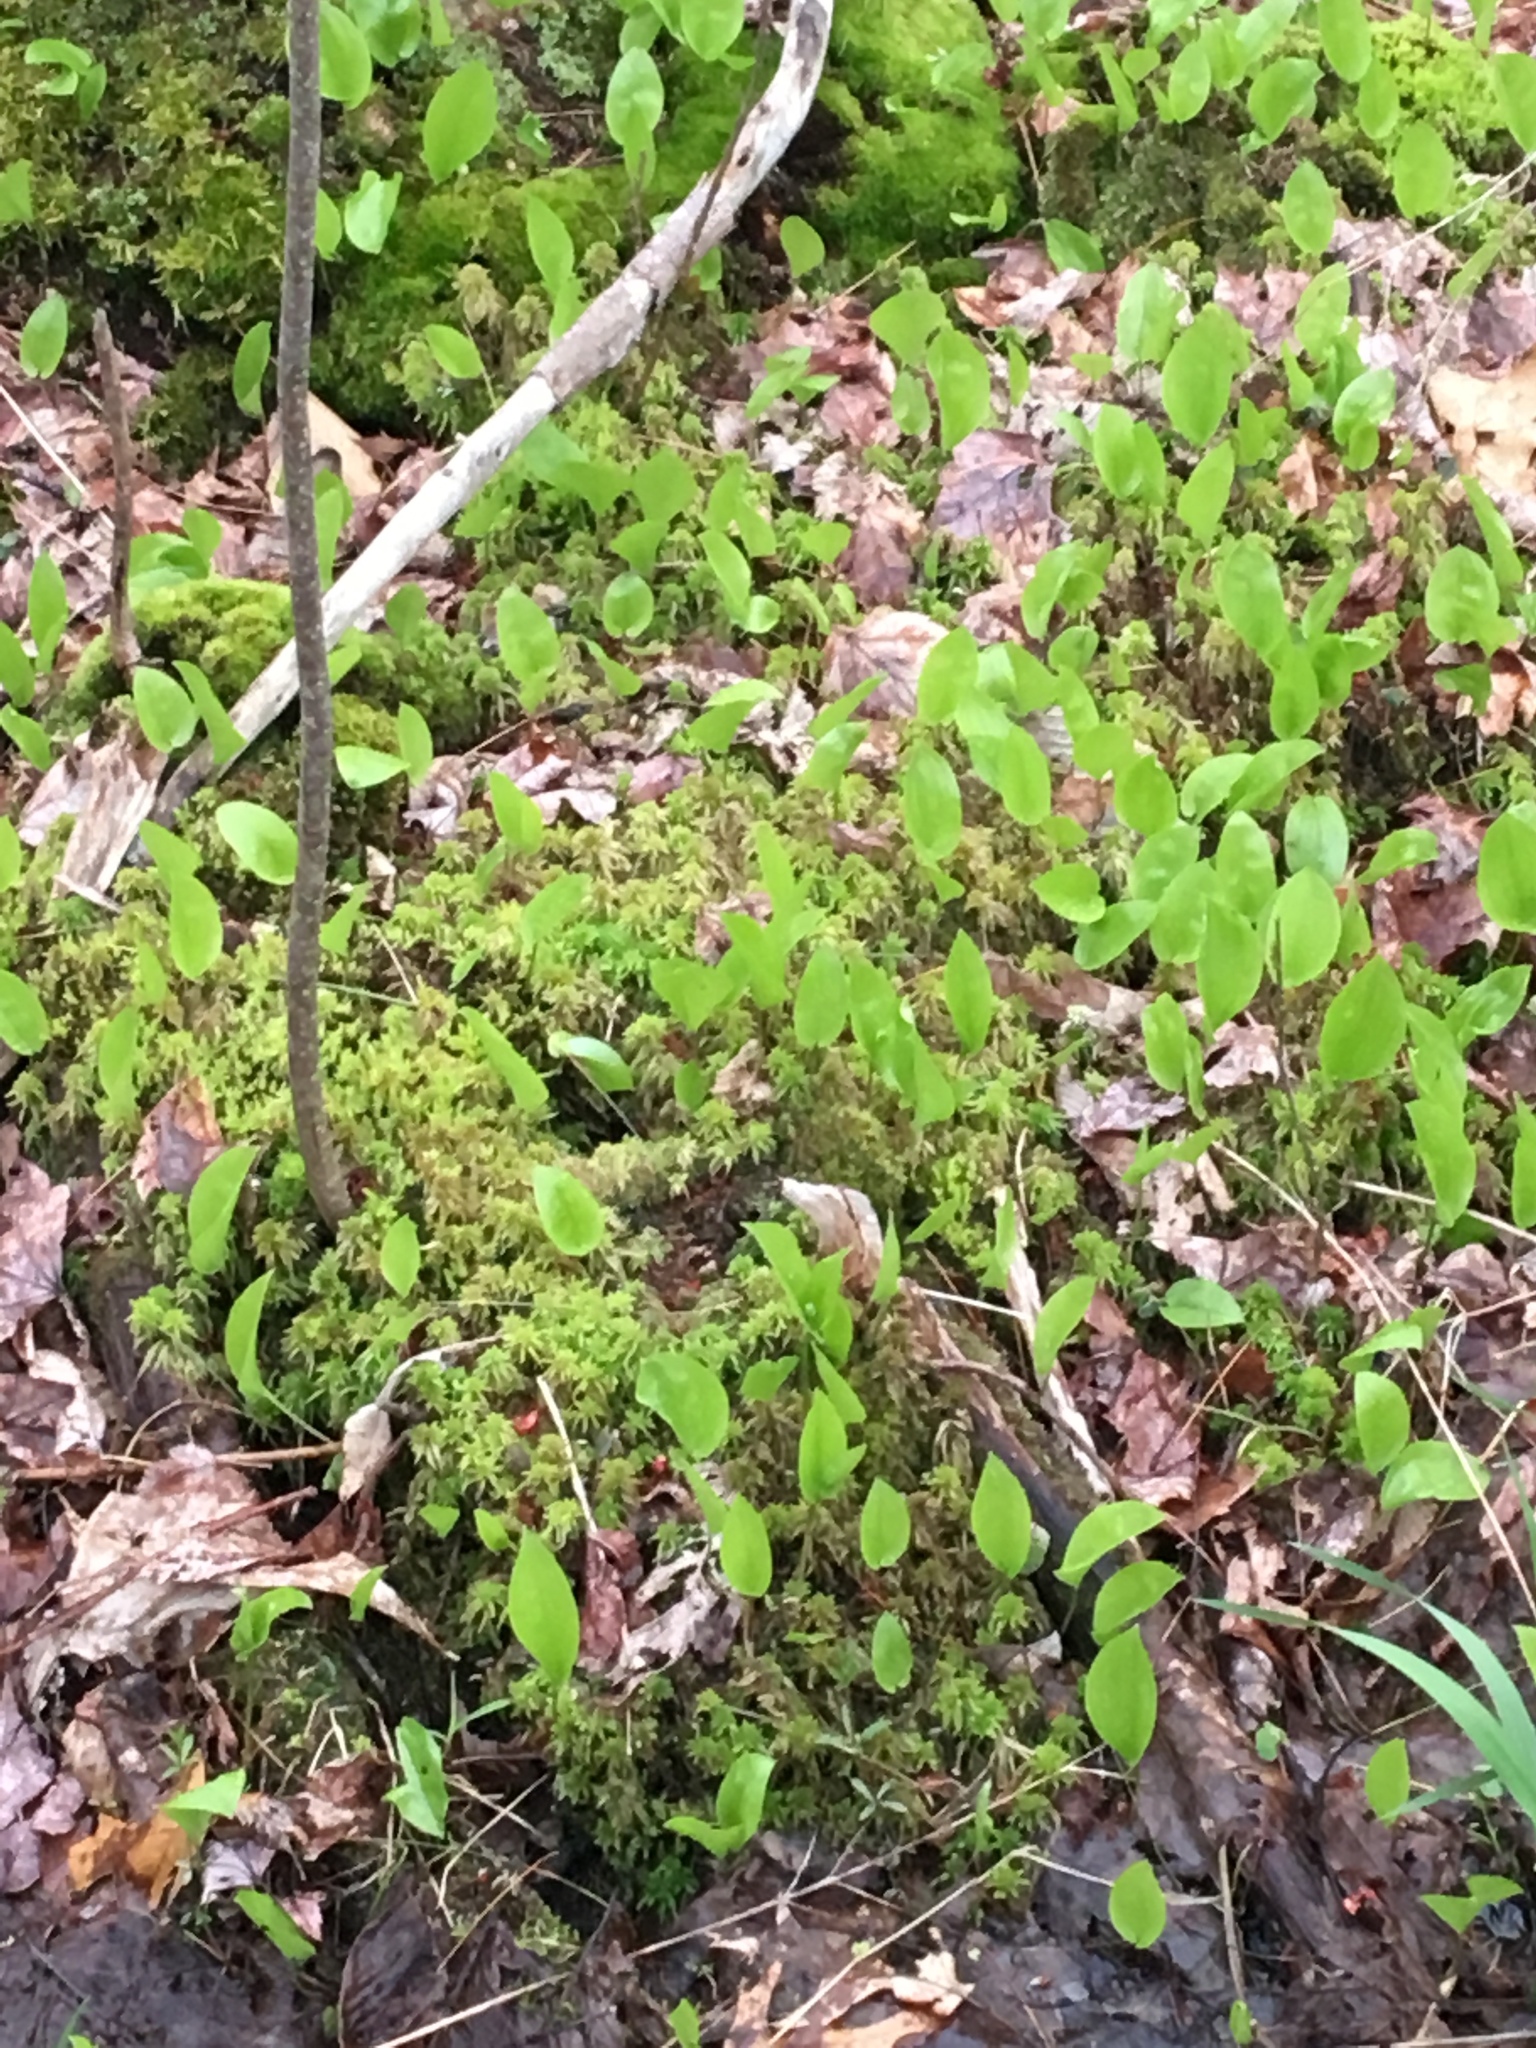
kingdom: Plantae
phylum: Tracheophyta
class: Liliopsida
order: Asparagales
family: Asparagaceae
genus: Maianthemum
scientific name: Maianthemum canadense
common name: False lily-of-the-valley
